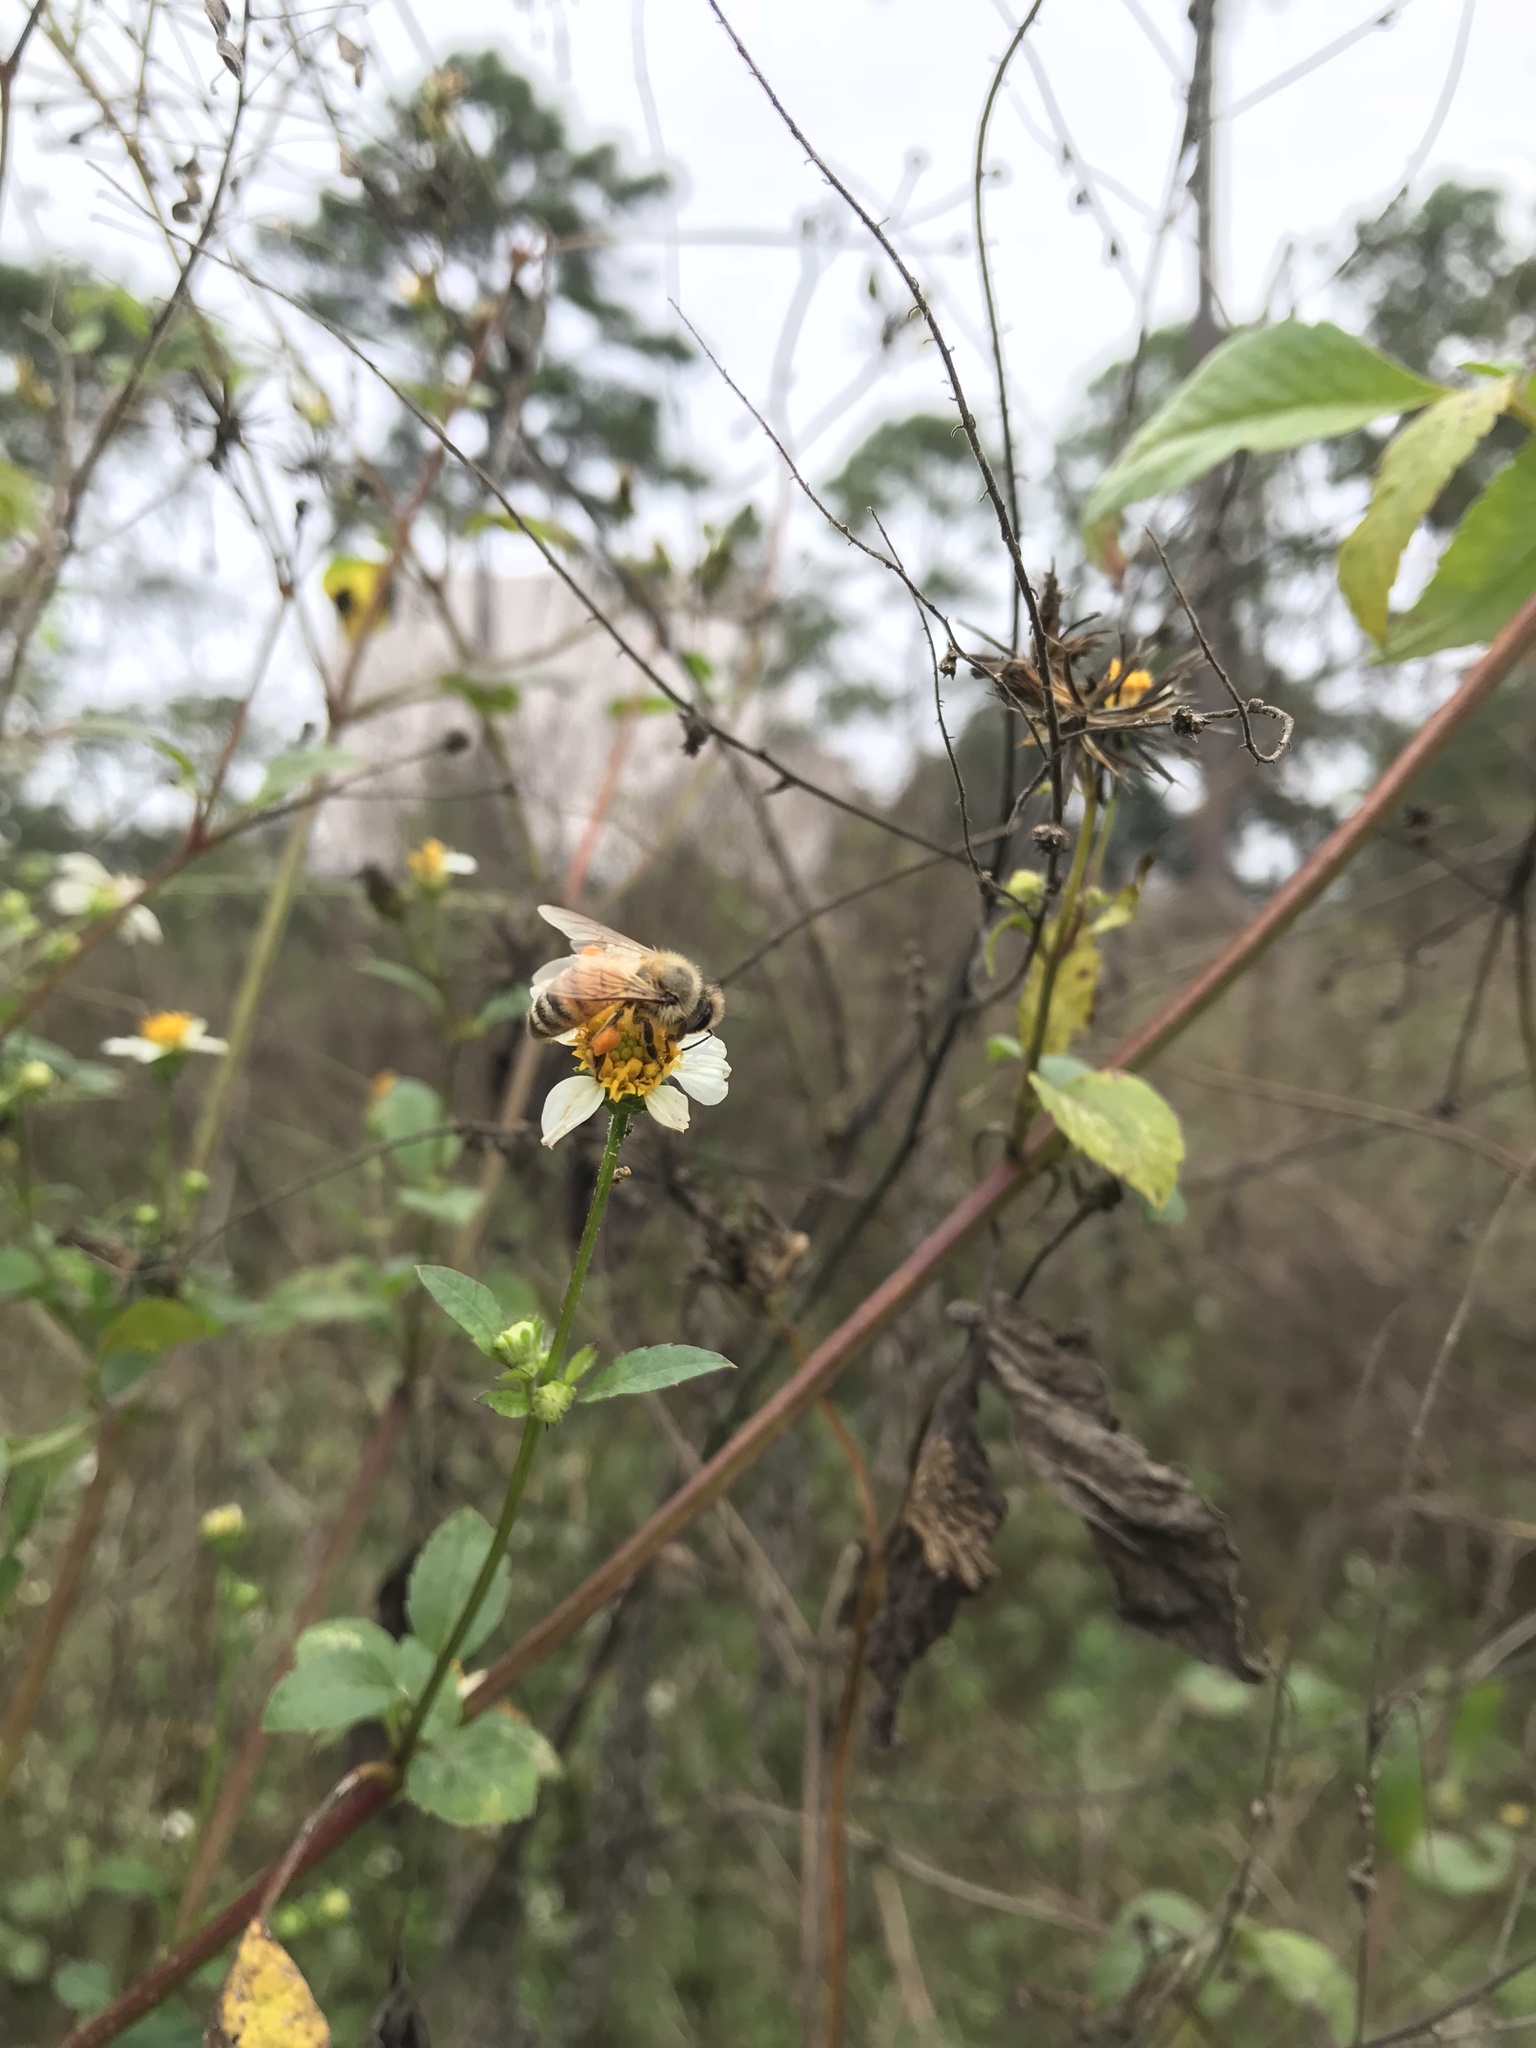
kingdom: Animalia
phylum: Arthropoda
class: Insecta
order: Hymenoptera
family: Apidae
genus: Apis
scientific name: Apis mellifera
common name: Honey bee
